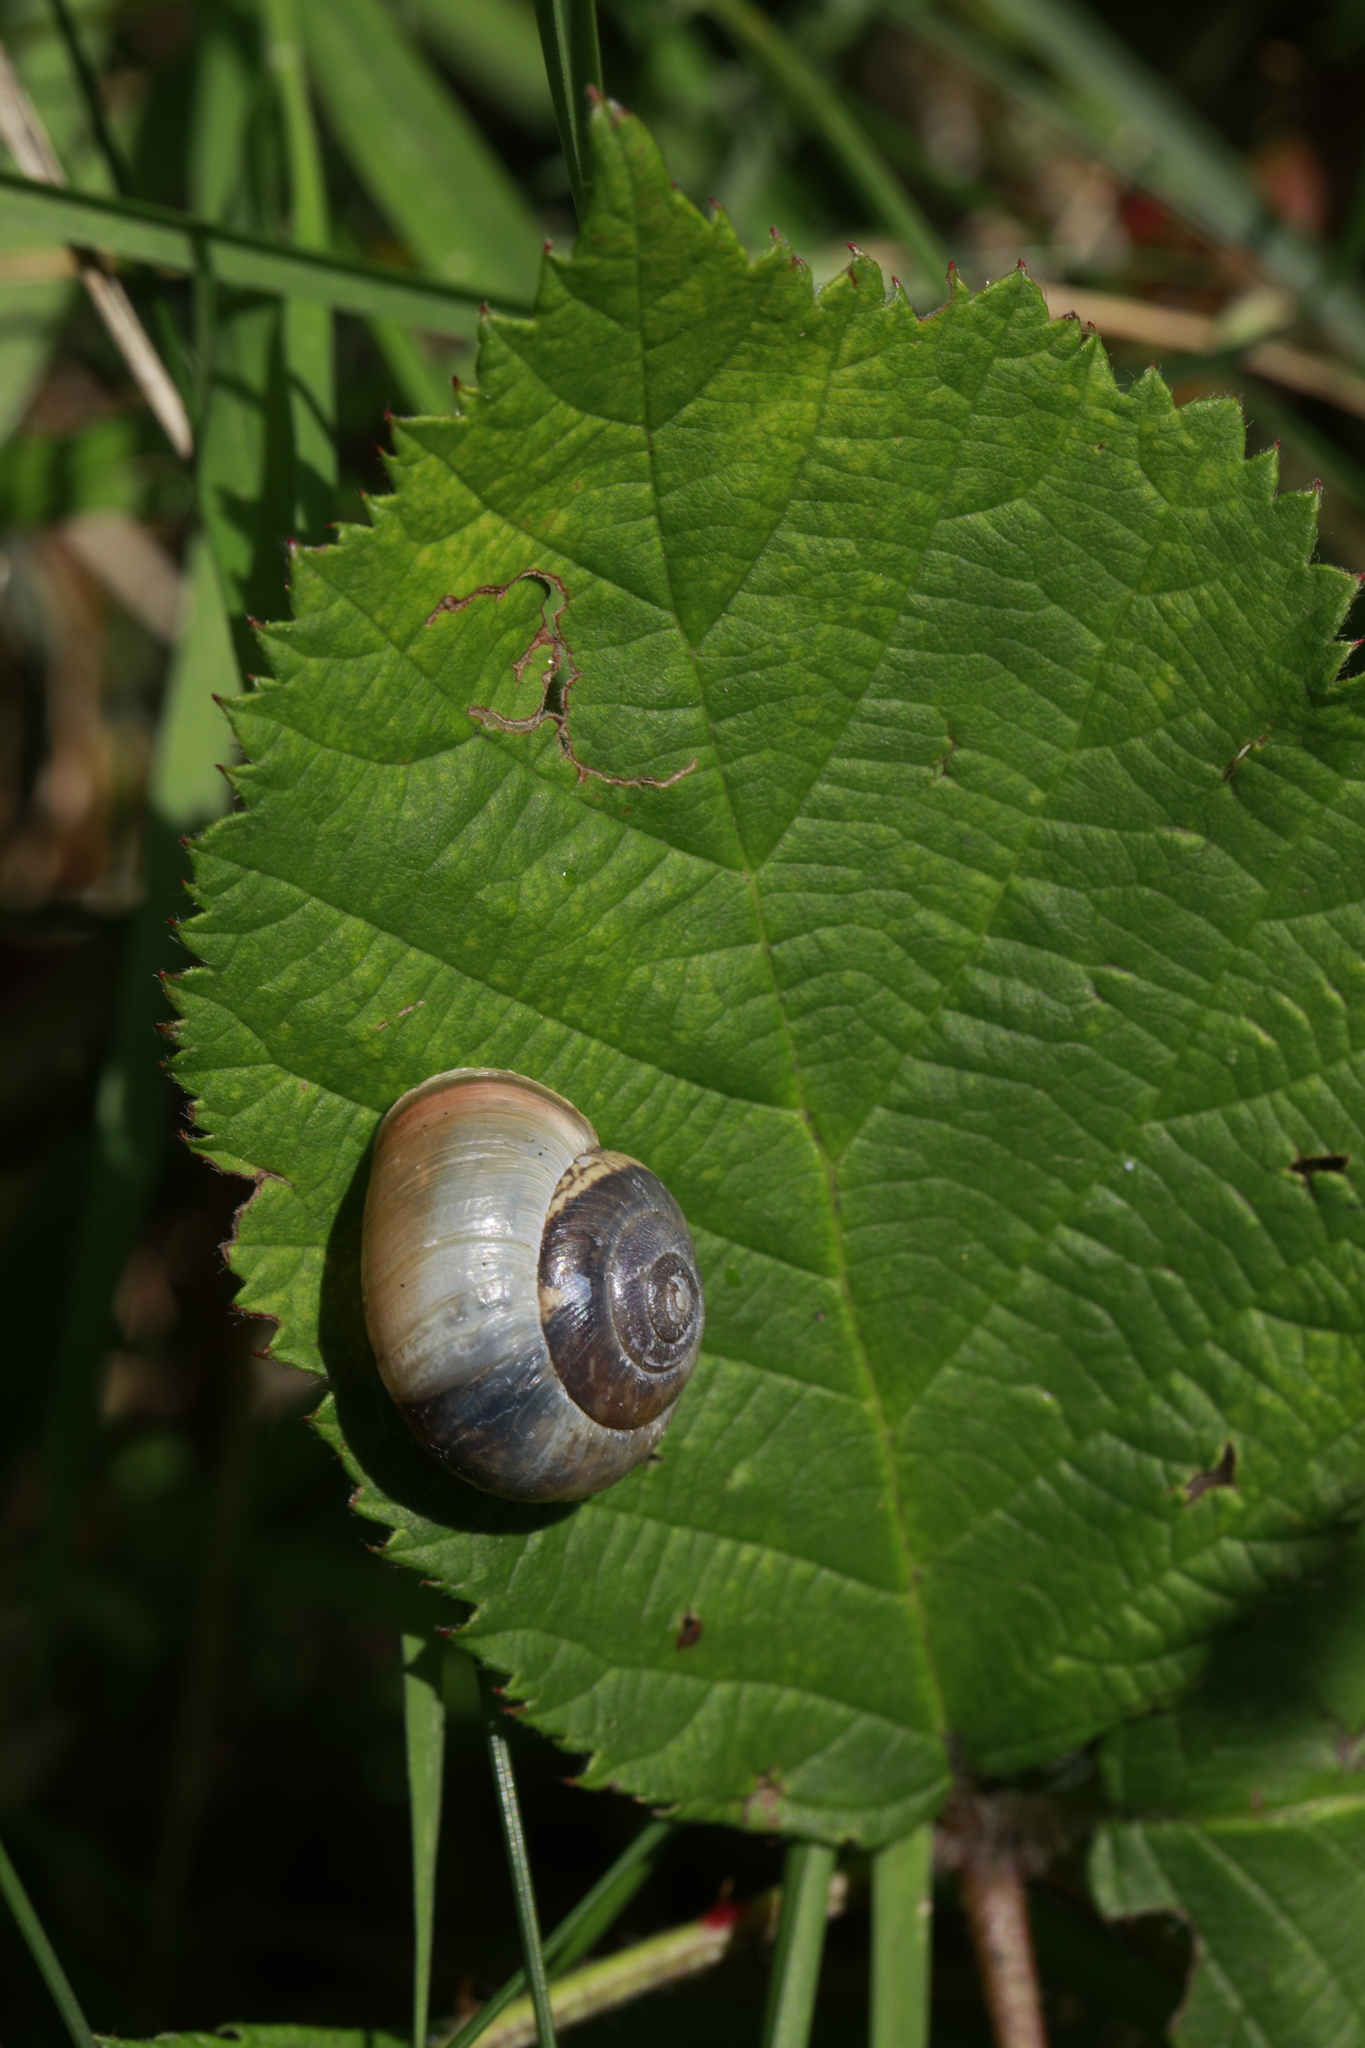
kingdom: Animalia
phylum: Mollusca
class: Gastropoda
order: Stylommatophora
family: Hygromiidae
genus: Monacha
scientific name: Monacha cantiana
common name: Kentish snail
